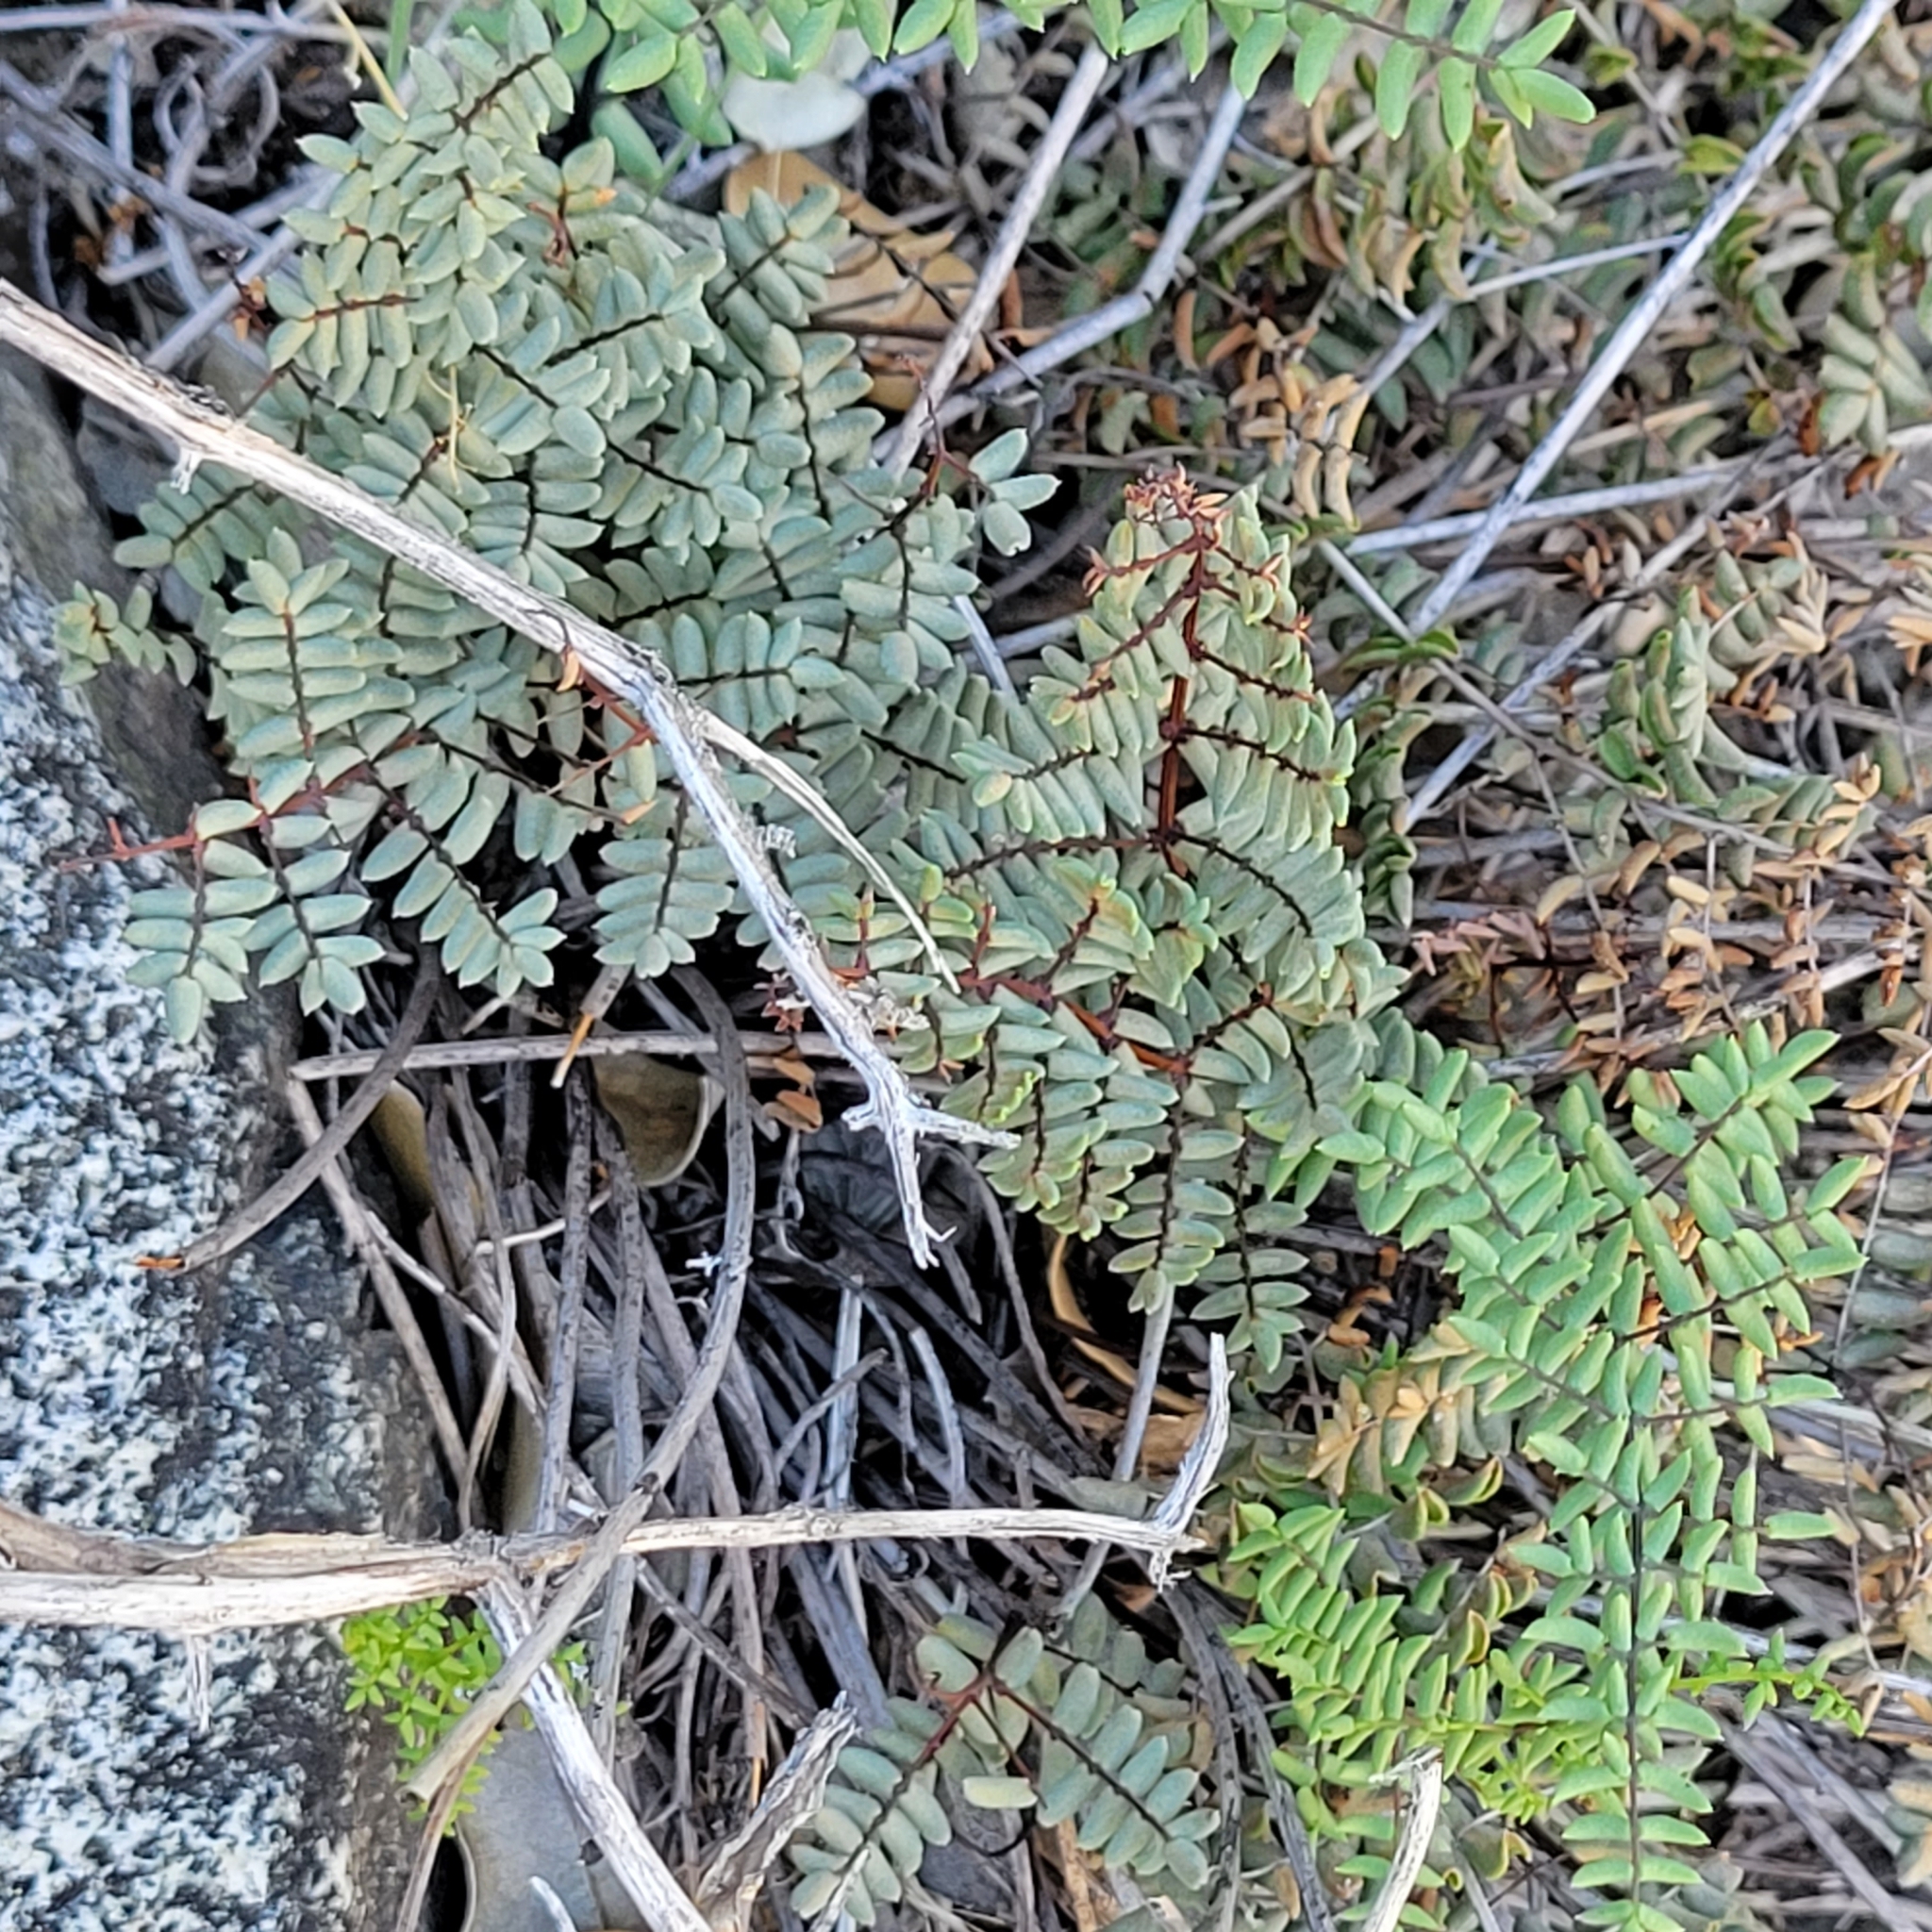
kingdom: Plantae
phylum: Tracheophyta
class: Polypodiopsida
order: Polypodiales
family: Pteridaceae
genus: Pellaea
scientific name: Pellaea mucronata
